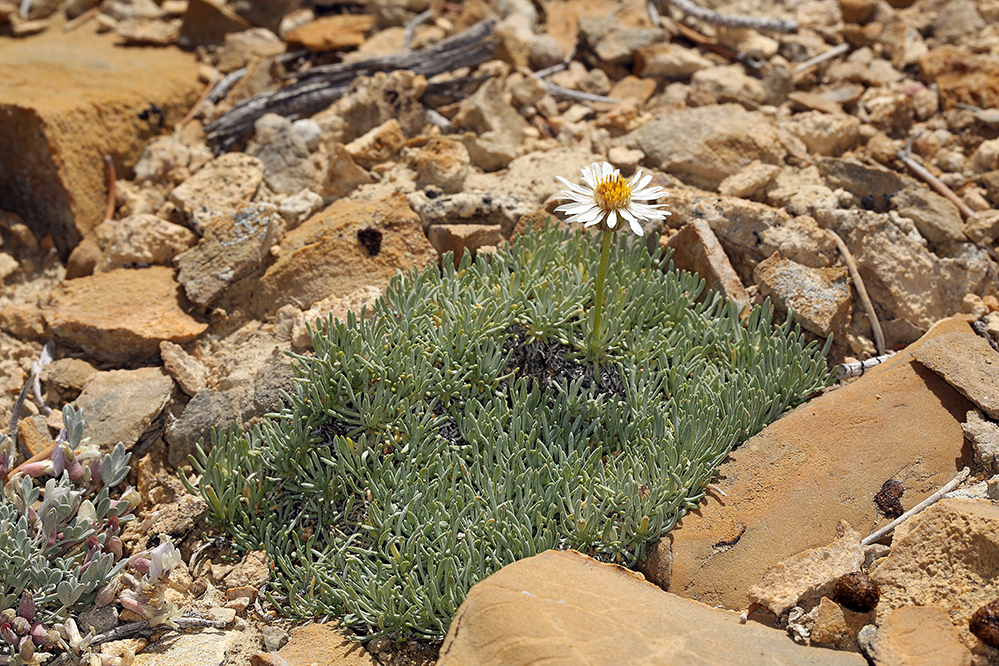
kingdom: Plantae
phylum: Tracheophyta
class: Magnoliopsida
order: Asterales
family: Asteraceae
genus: Erigeron
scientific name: Erigeron compactus
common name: Fern-leaf fleabane
